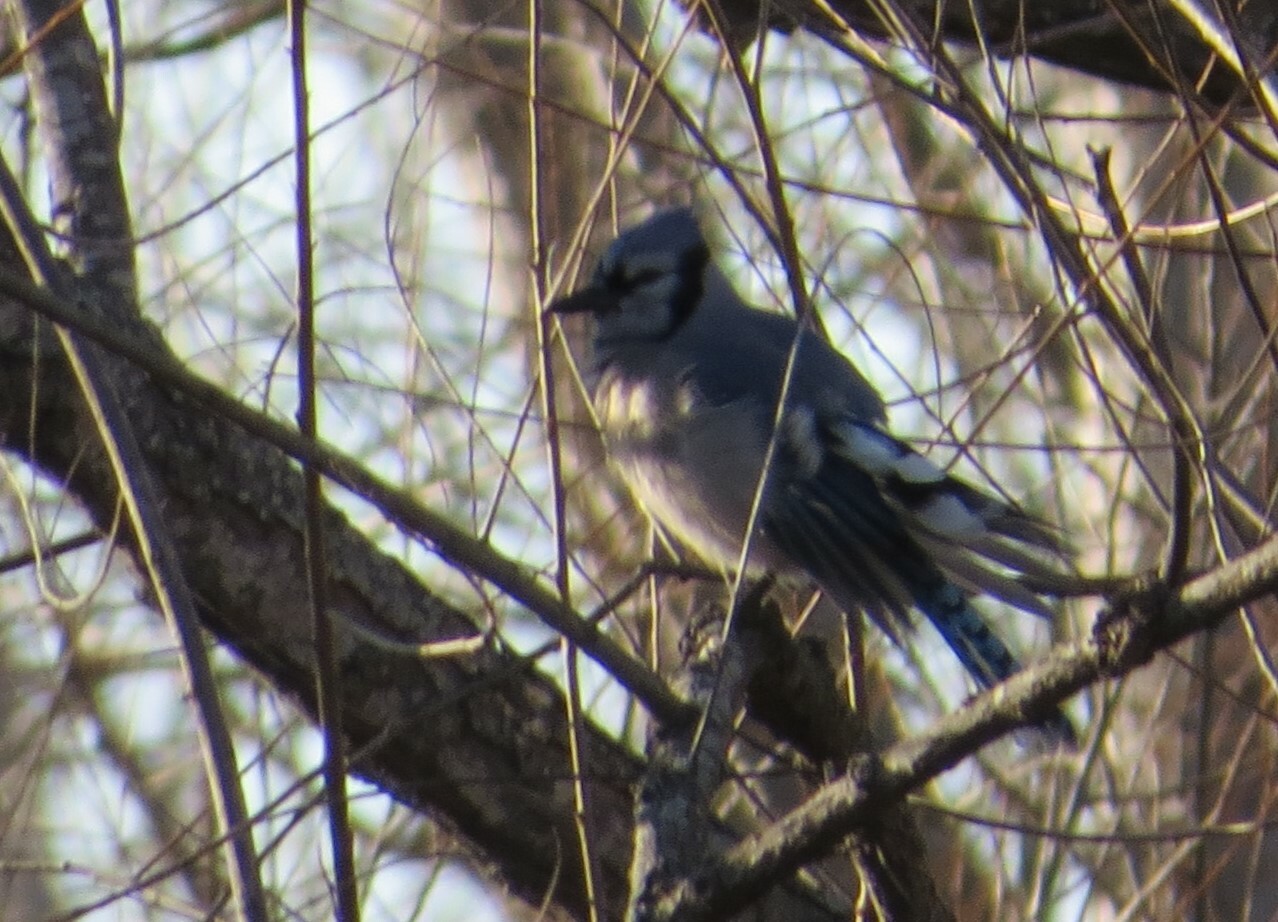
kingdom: Animalia
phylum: Chordata
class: Aves
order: Passeriformes
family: Corvidae
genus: Cyanocitta
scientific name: Cyanocitta cristata
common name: Blue jay
